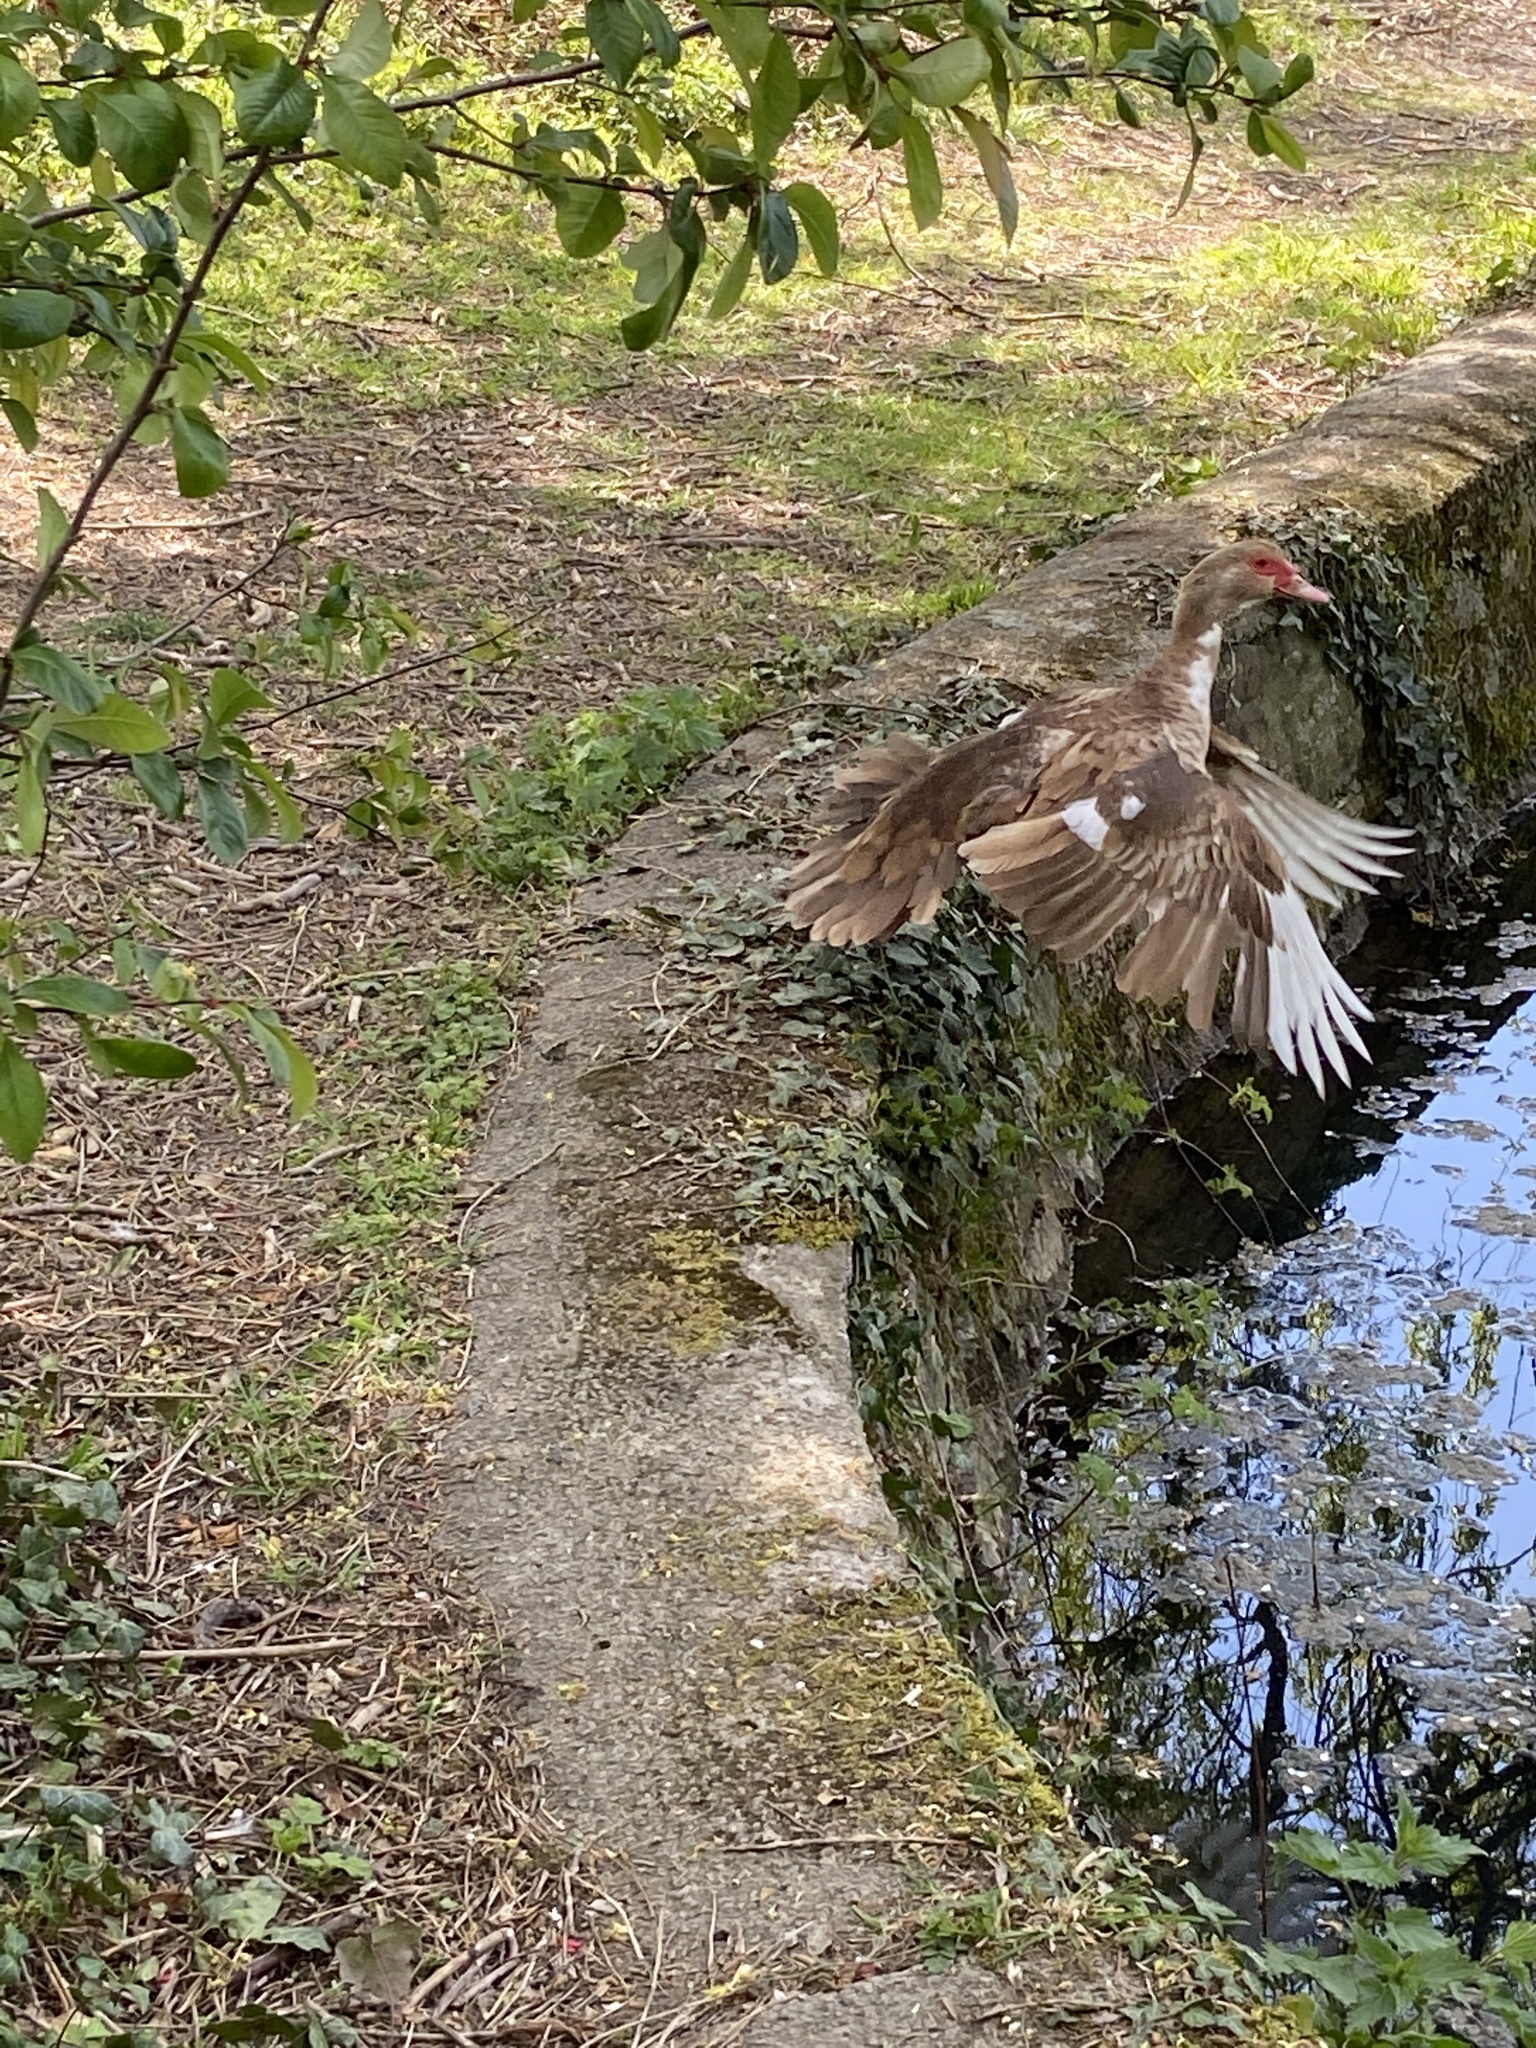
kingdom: Animalia
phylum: Chordata
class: Aves
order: Anseriformes
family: Anatidae
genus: Cairina
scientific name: Cairina moschata
